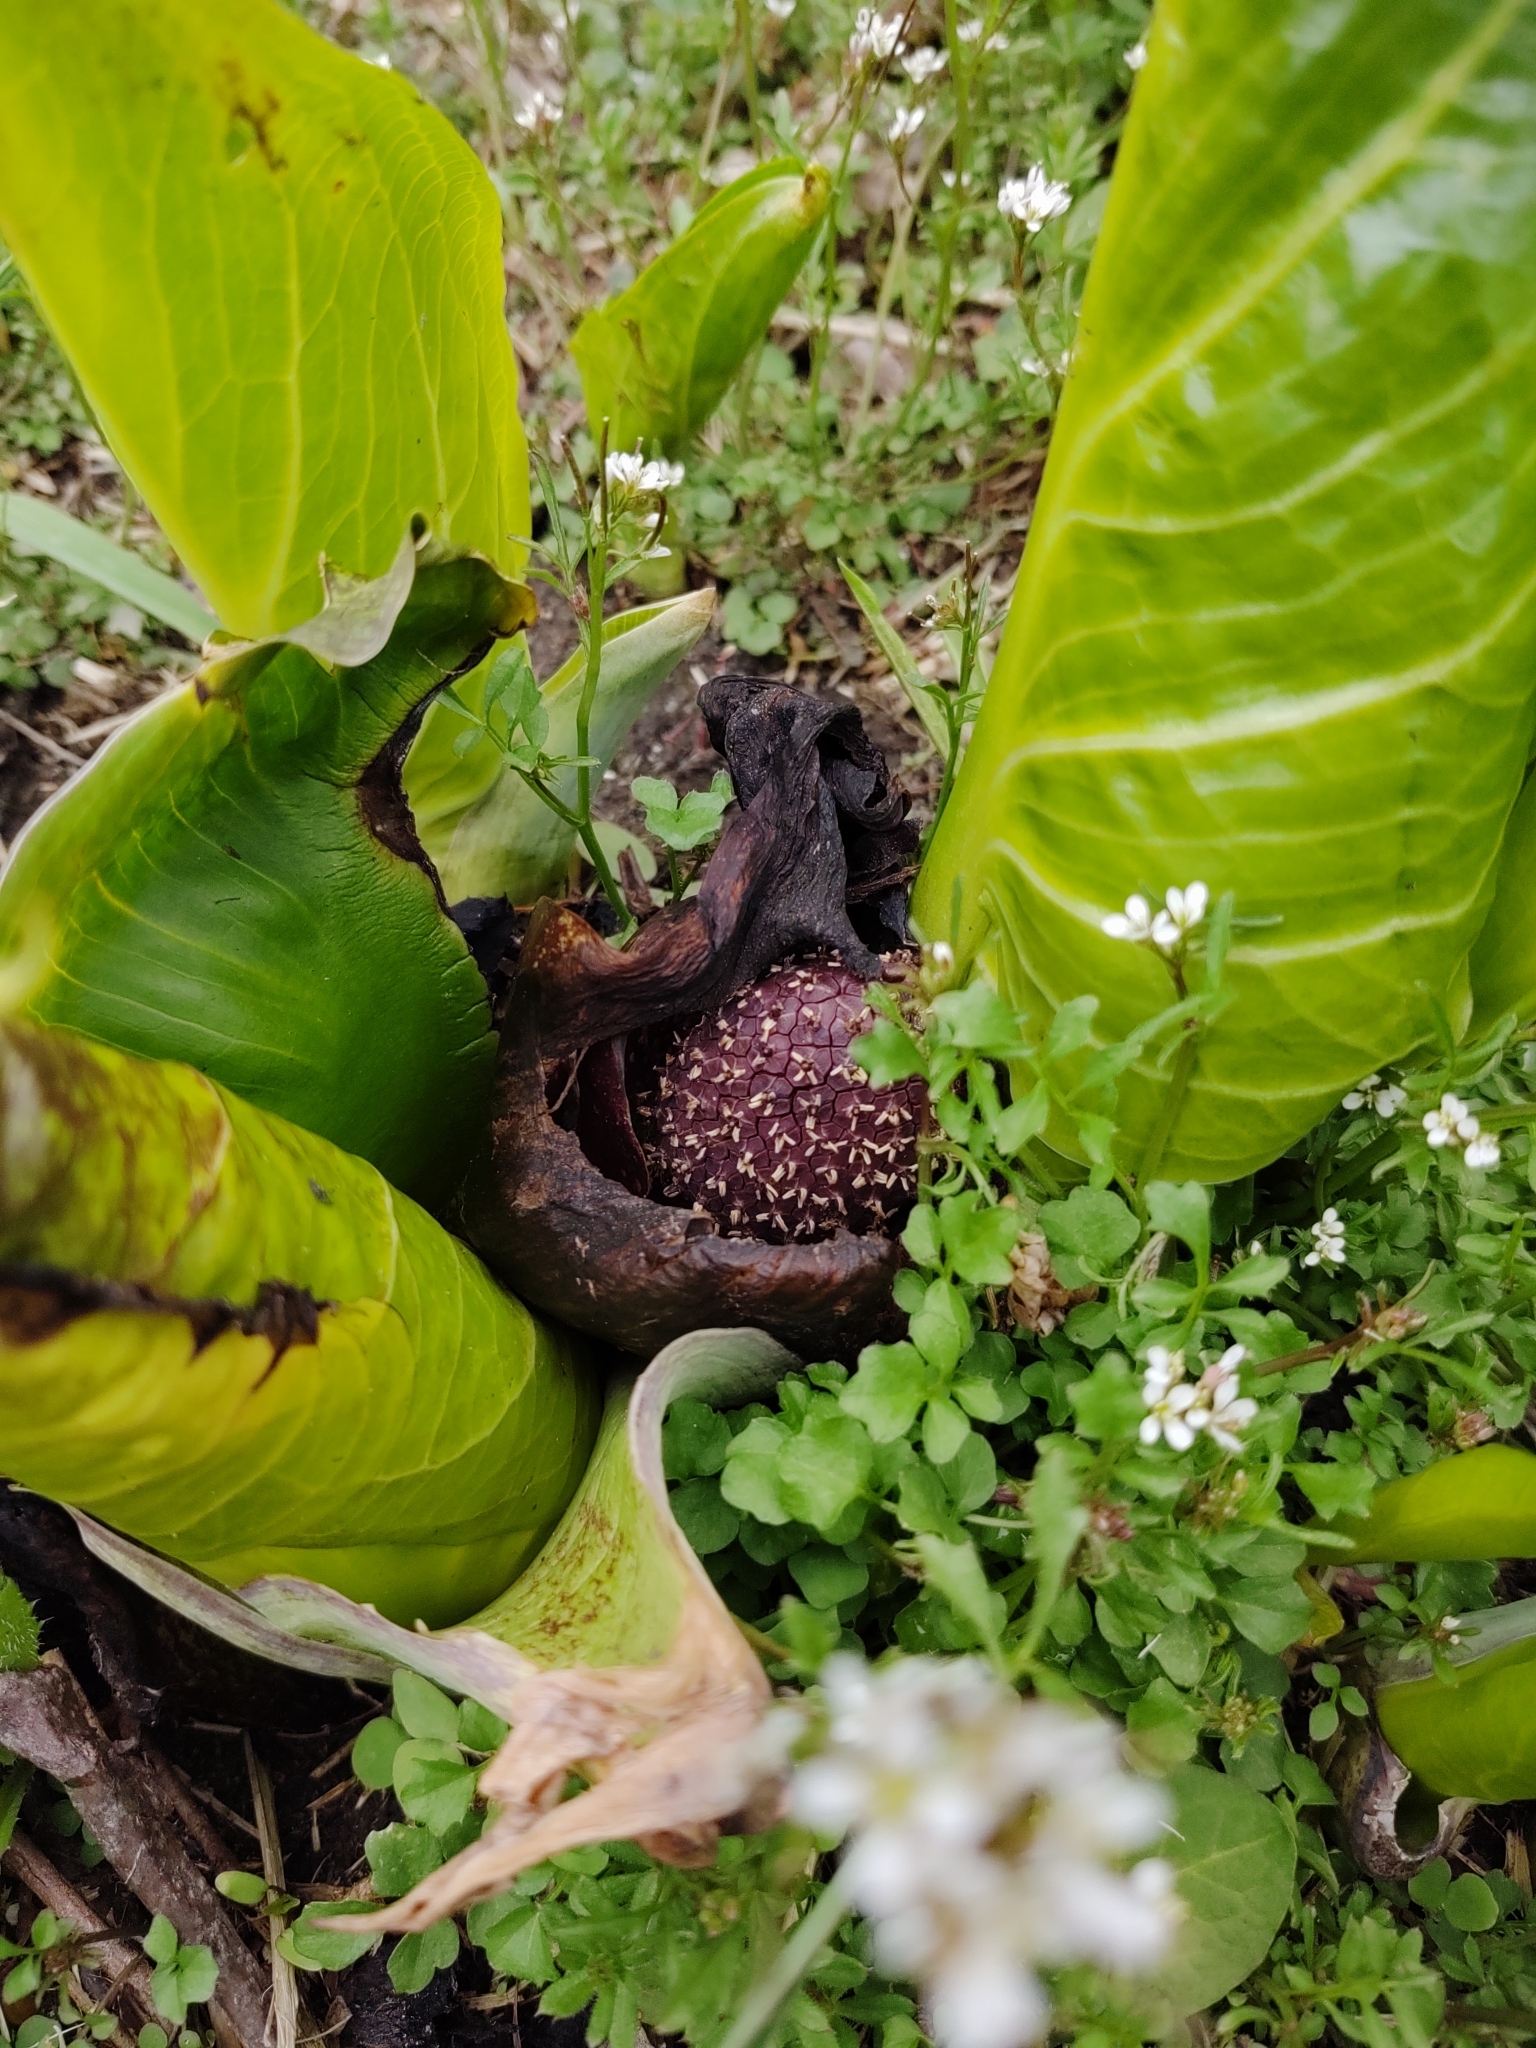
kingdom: Plantae
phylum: Tracheophyta
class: Liliopsida
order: Alismatales
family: Araceae
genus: Symplocarpus
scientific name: Symplocarpus foetidus
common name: Eastern skunk cabbage
